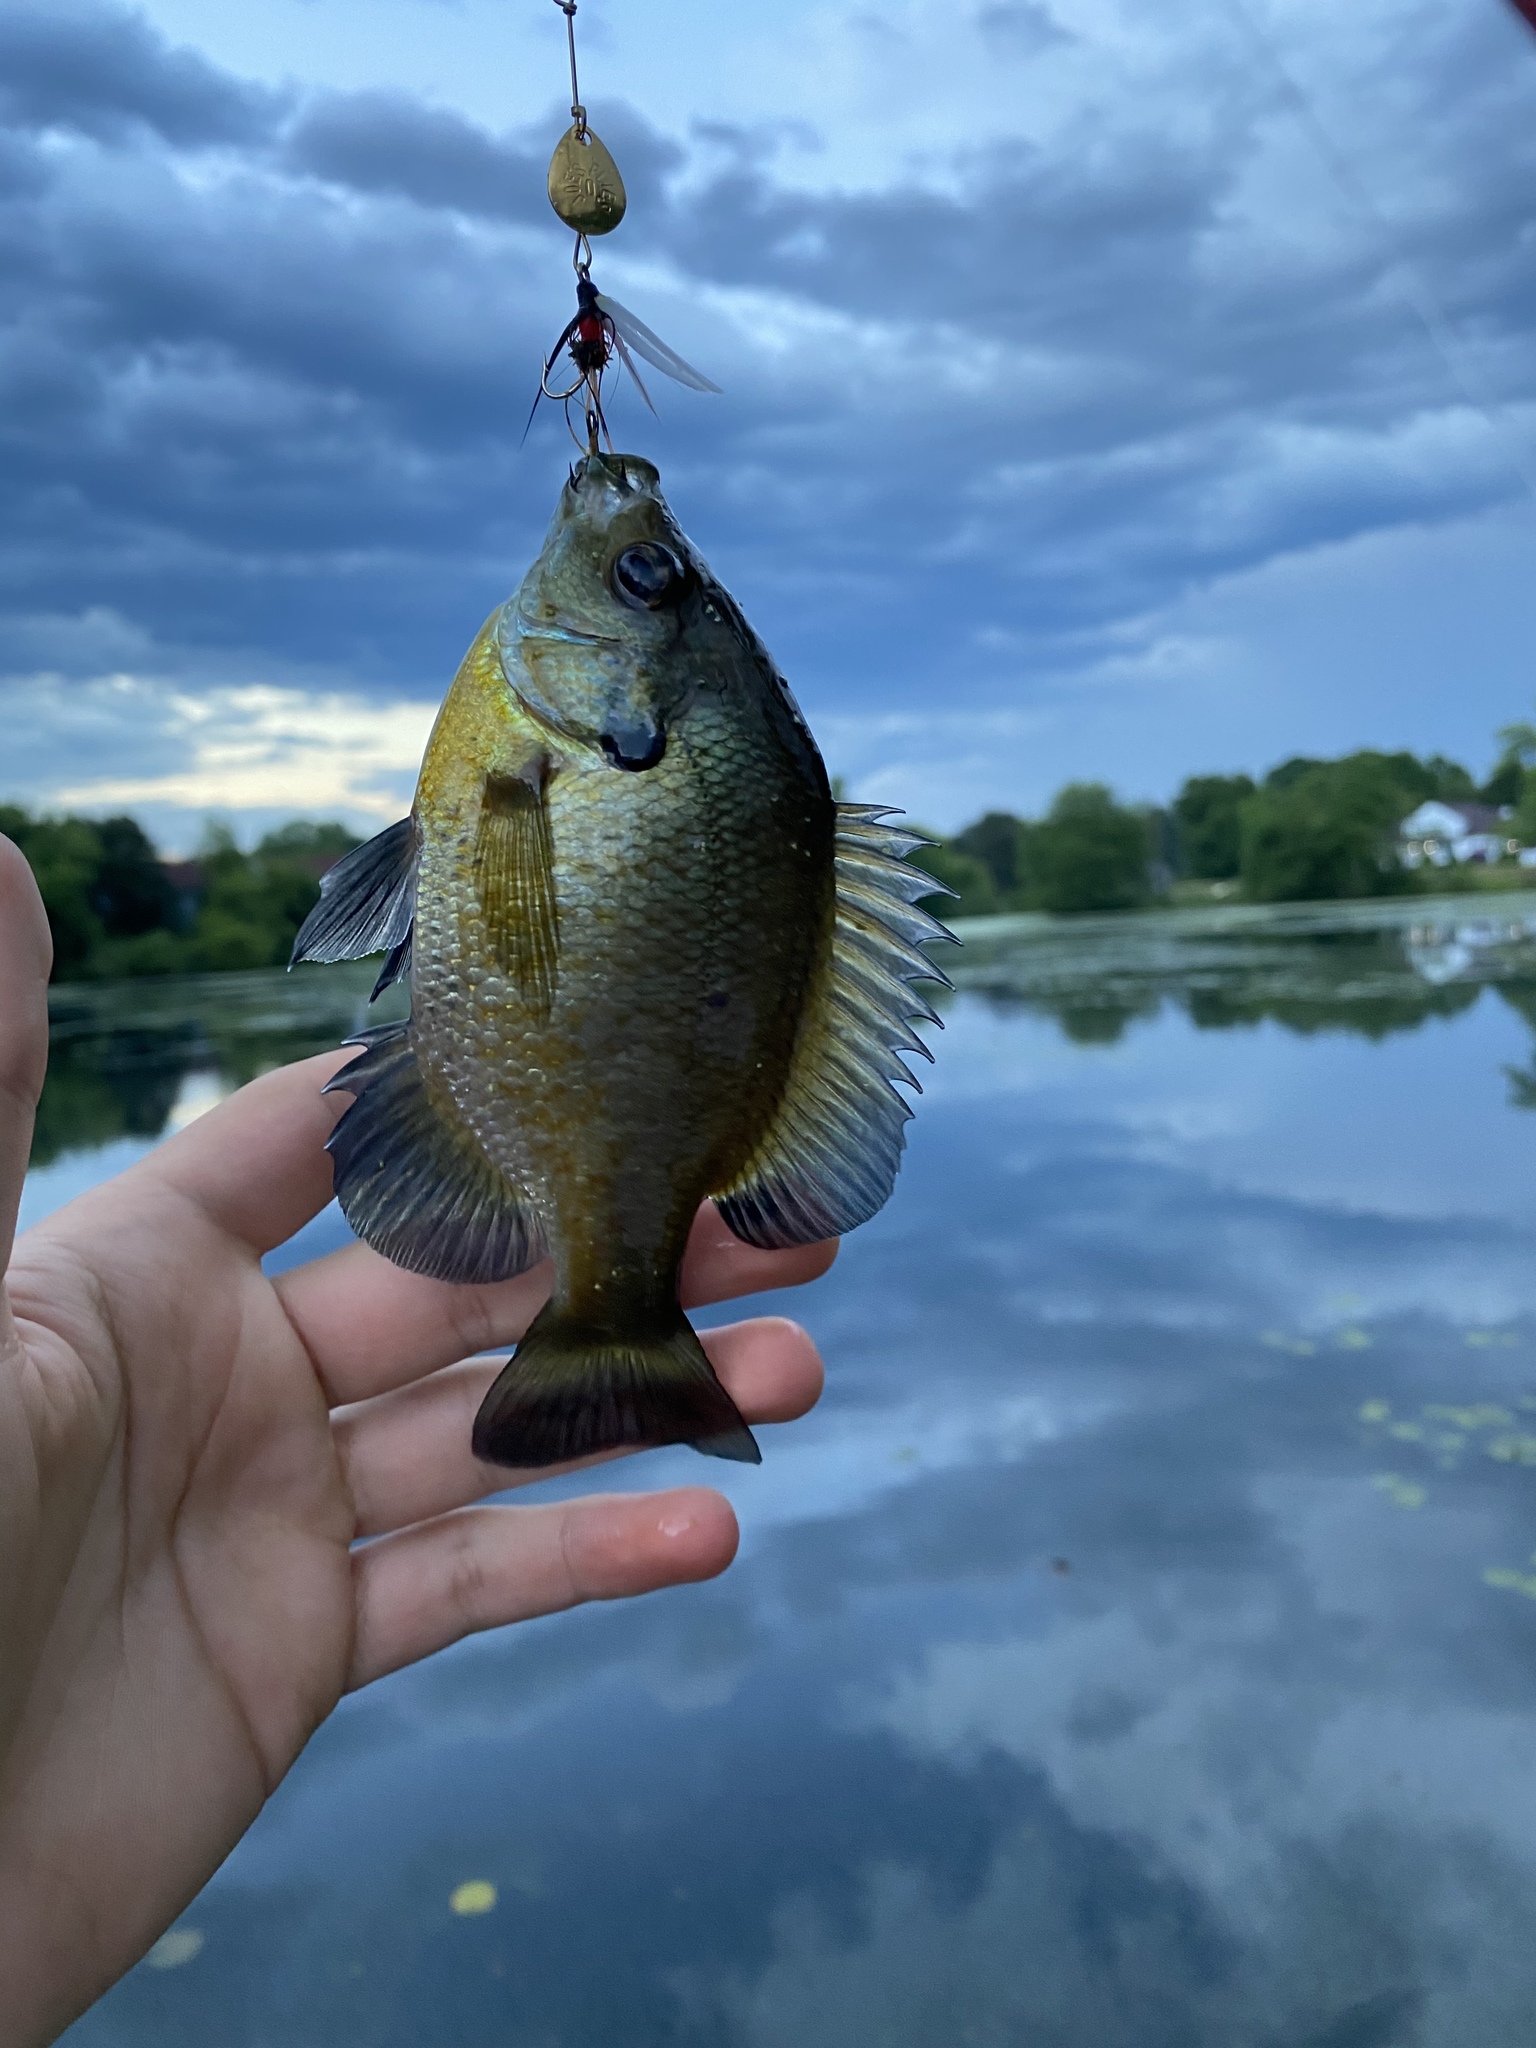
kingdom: Animalia
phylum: Chordata
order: Perciformes
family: Centrarchidae
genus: Lepomis
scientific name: Lepomis macrochirus
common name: Bluegill
